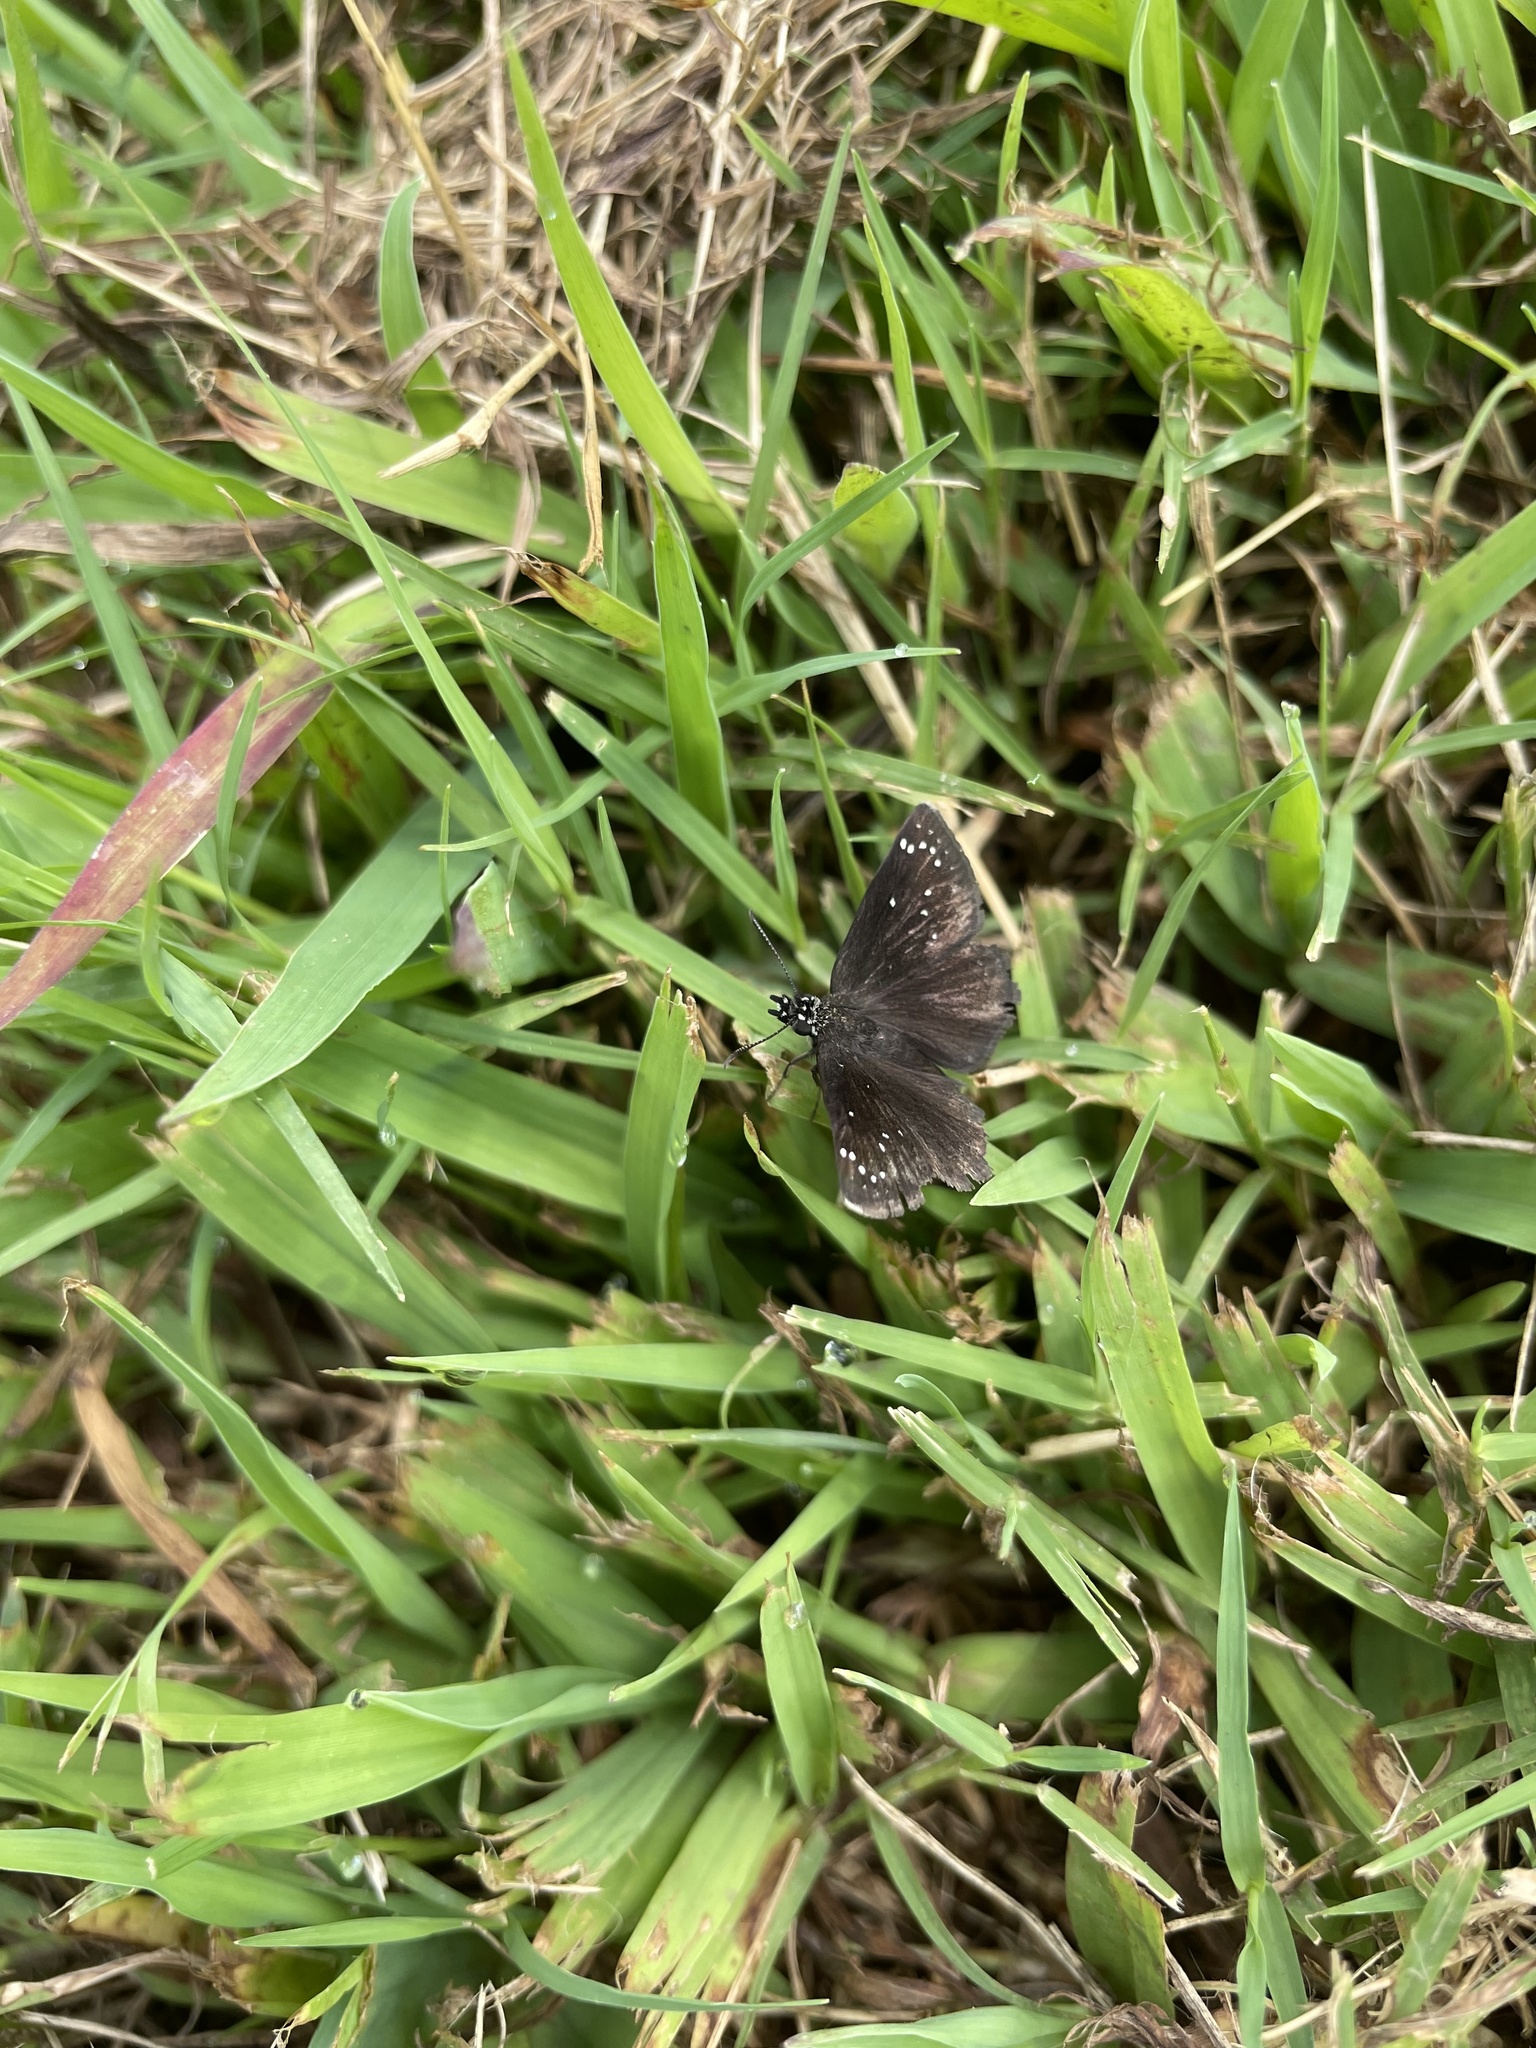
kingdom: Animalia
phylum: Arthropoda
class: Insecta
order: Lepidoptera
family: Hesperiidae
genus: Pholisora
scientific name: Pholisora catullus
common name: Common sootywing
